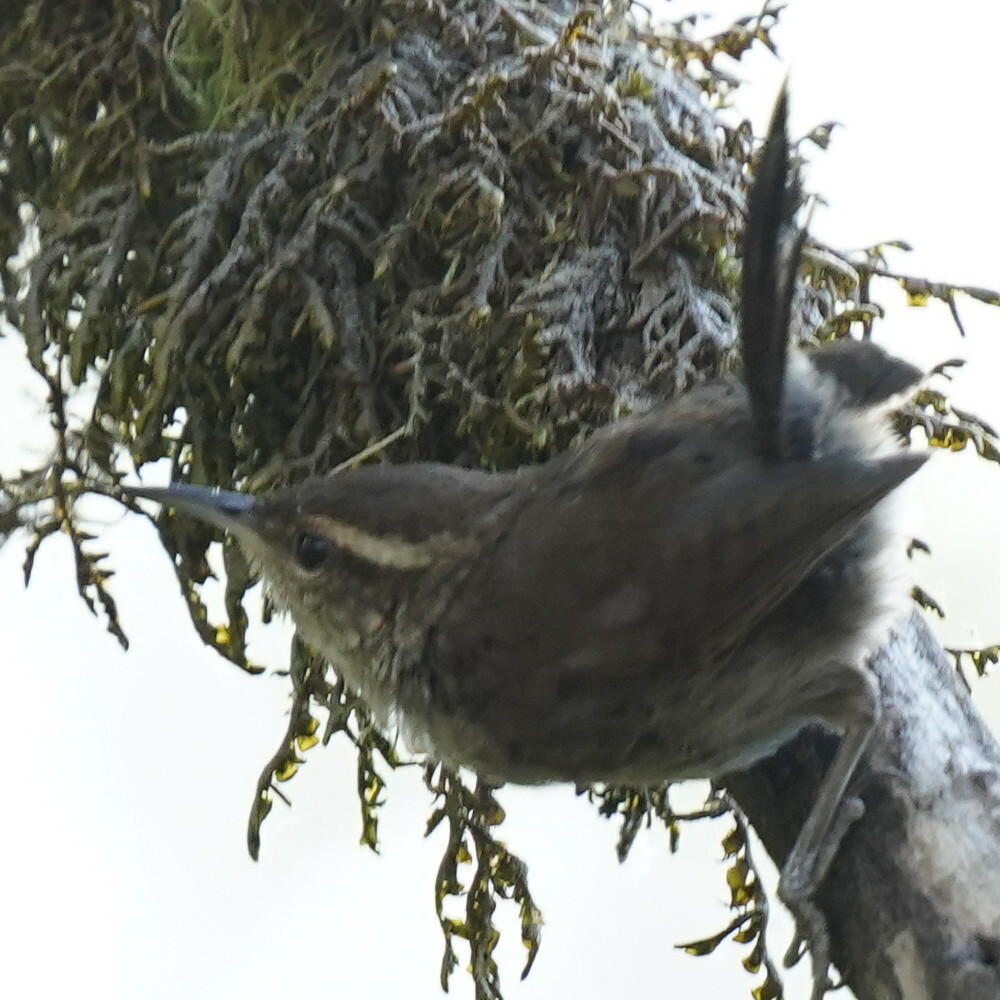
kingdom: Animalia
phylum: Chordata
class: Aves
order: Passeriformes
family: Troglodytidae
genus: Thryomanes
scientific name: Thryomanes bewickii
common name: Bewick's wren
